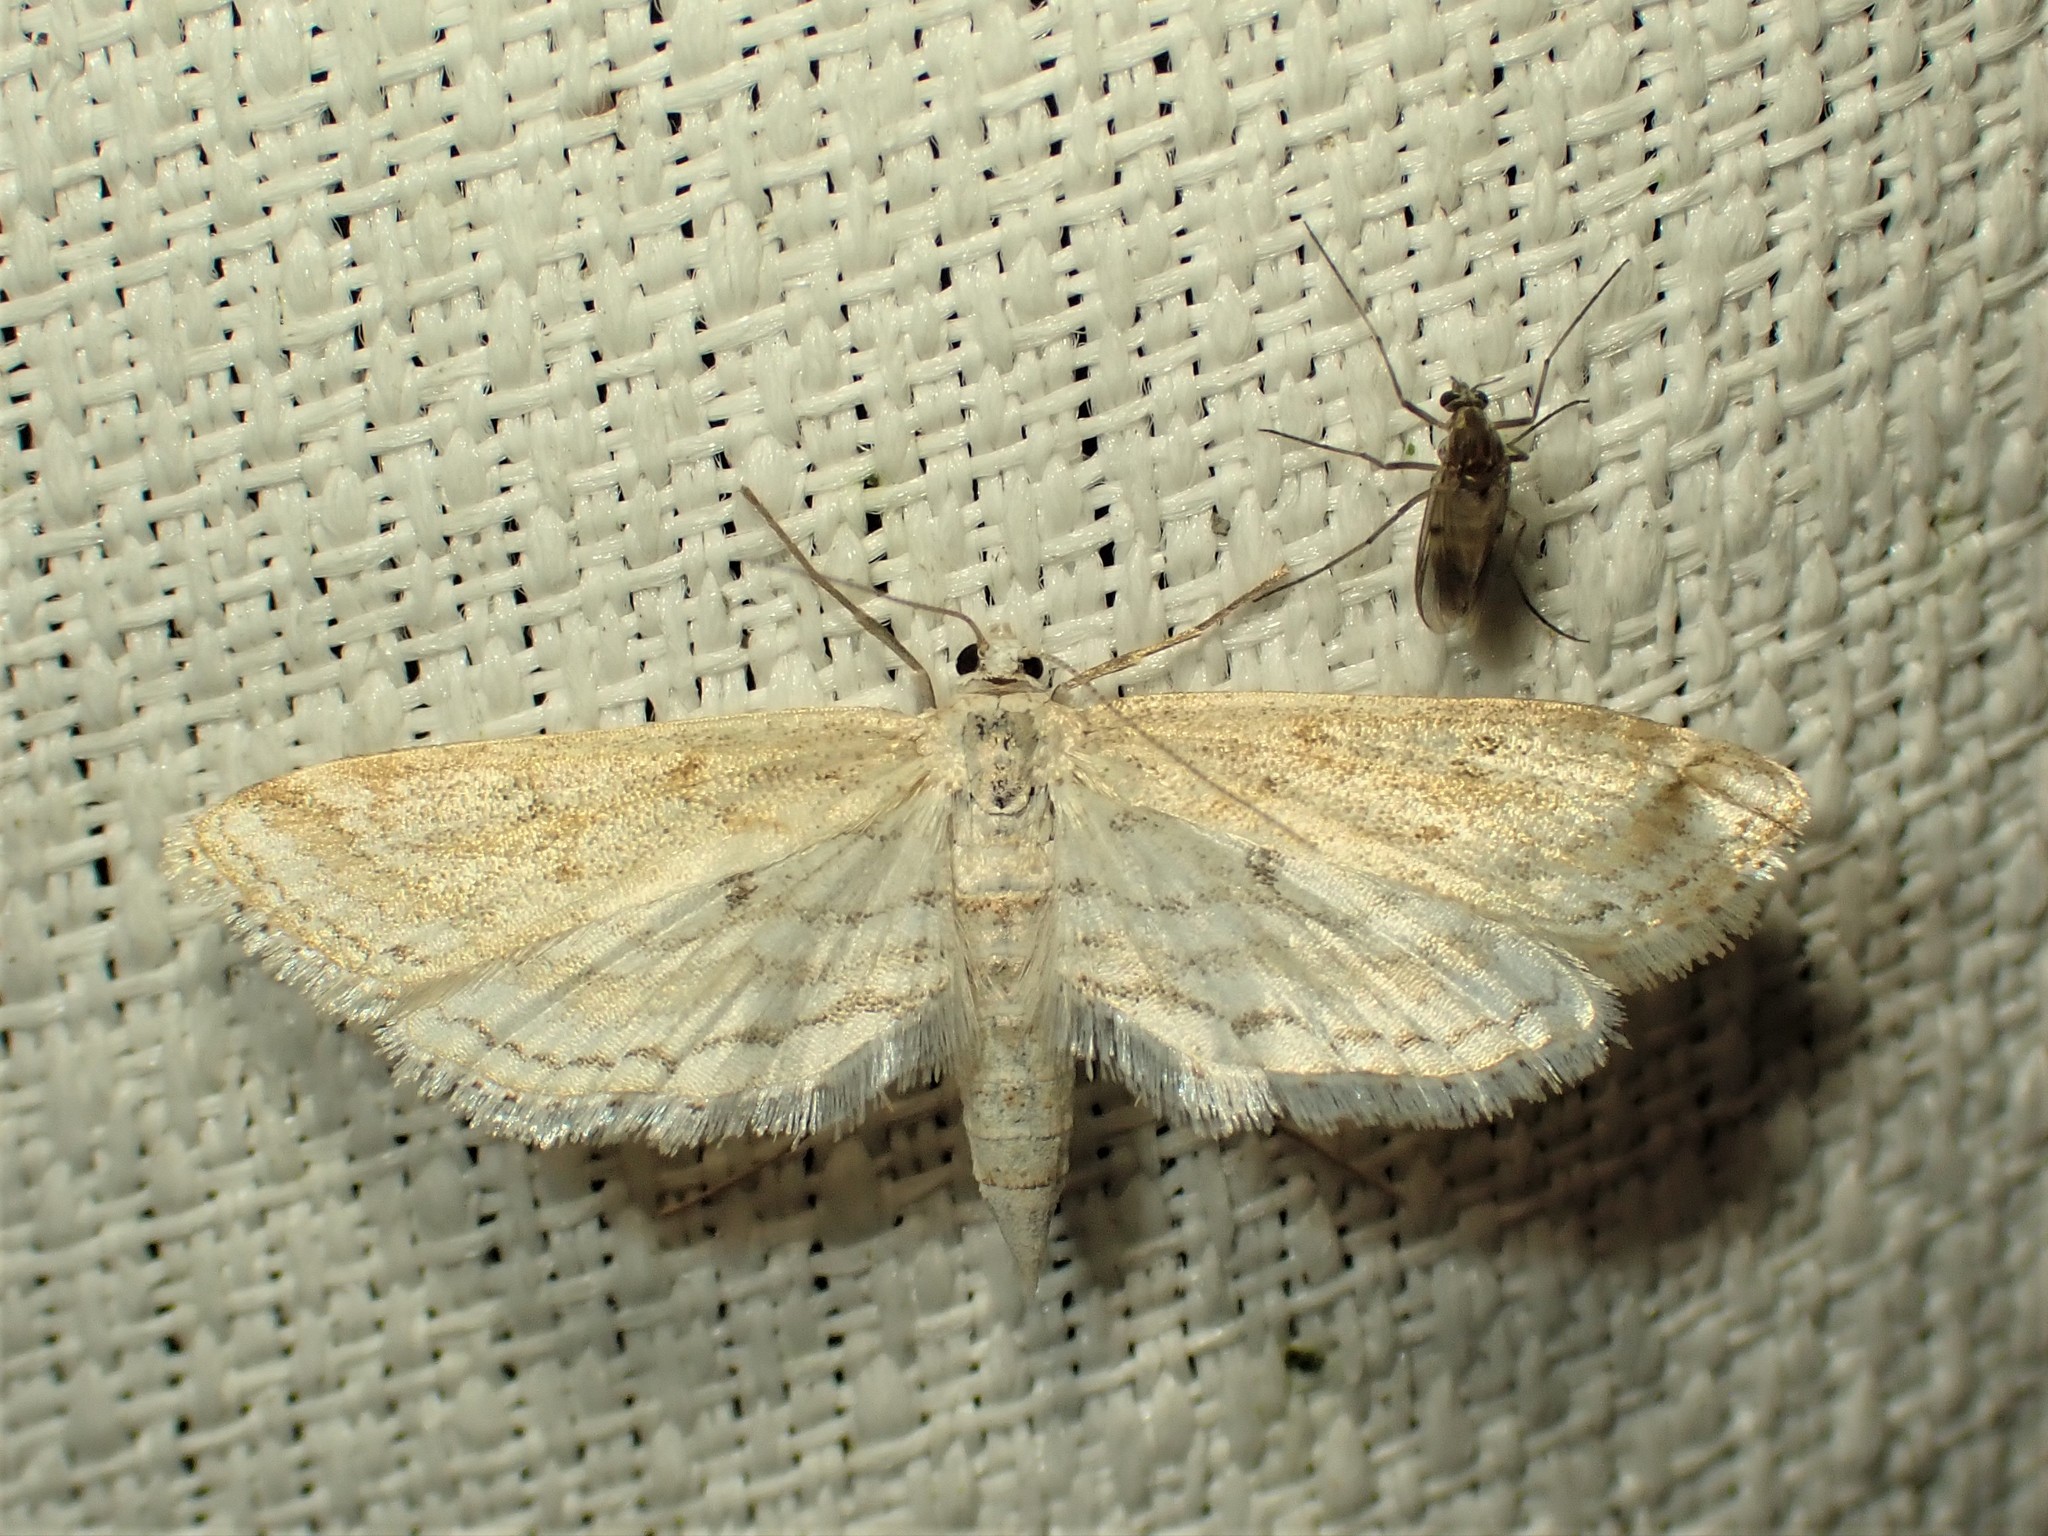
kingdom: Animalia
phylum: Arthropoda
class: Insecta
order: Lepidoptera
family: Crambidae
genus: Parapoynx
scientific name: Parapoynx allionealis
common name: Bladderwort casemaker
